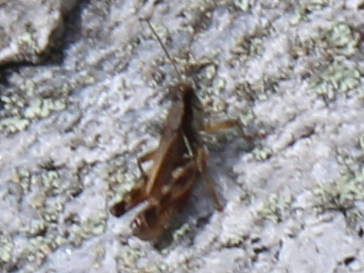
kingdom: Animalia
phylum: Arthropoda
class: Insecta
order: Orthoptera
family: Acrididae
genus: Melanoplus
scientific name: Melanoplus fasciatus
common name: Huckleberry locust
